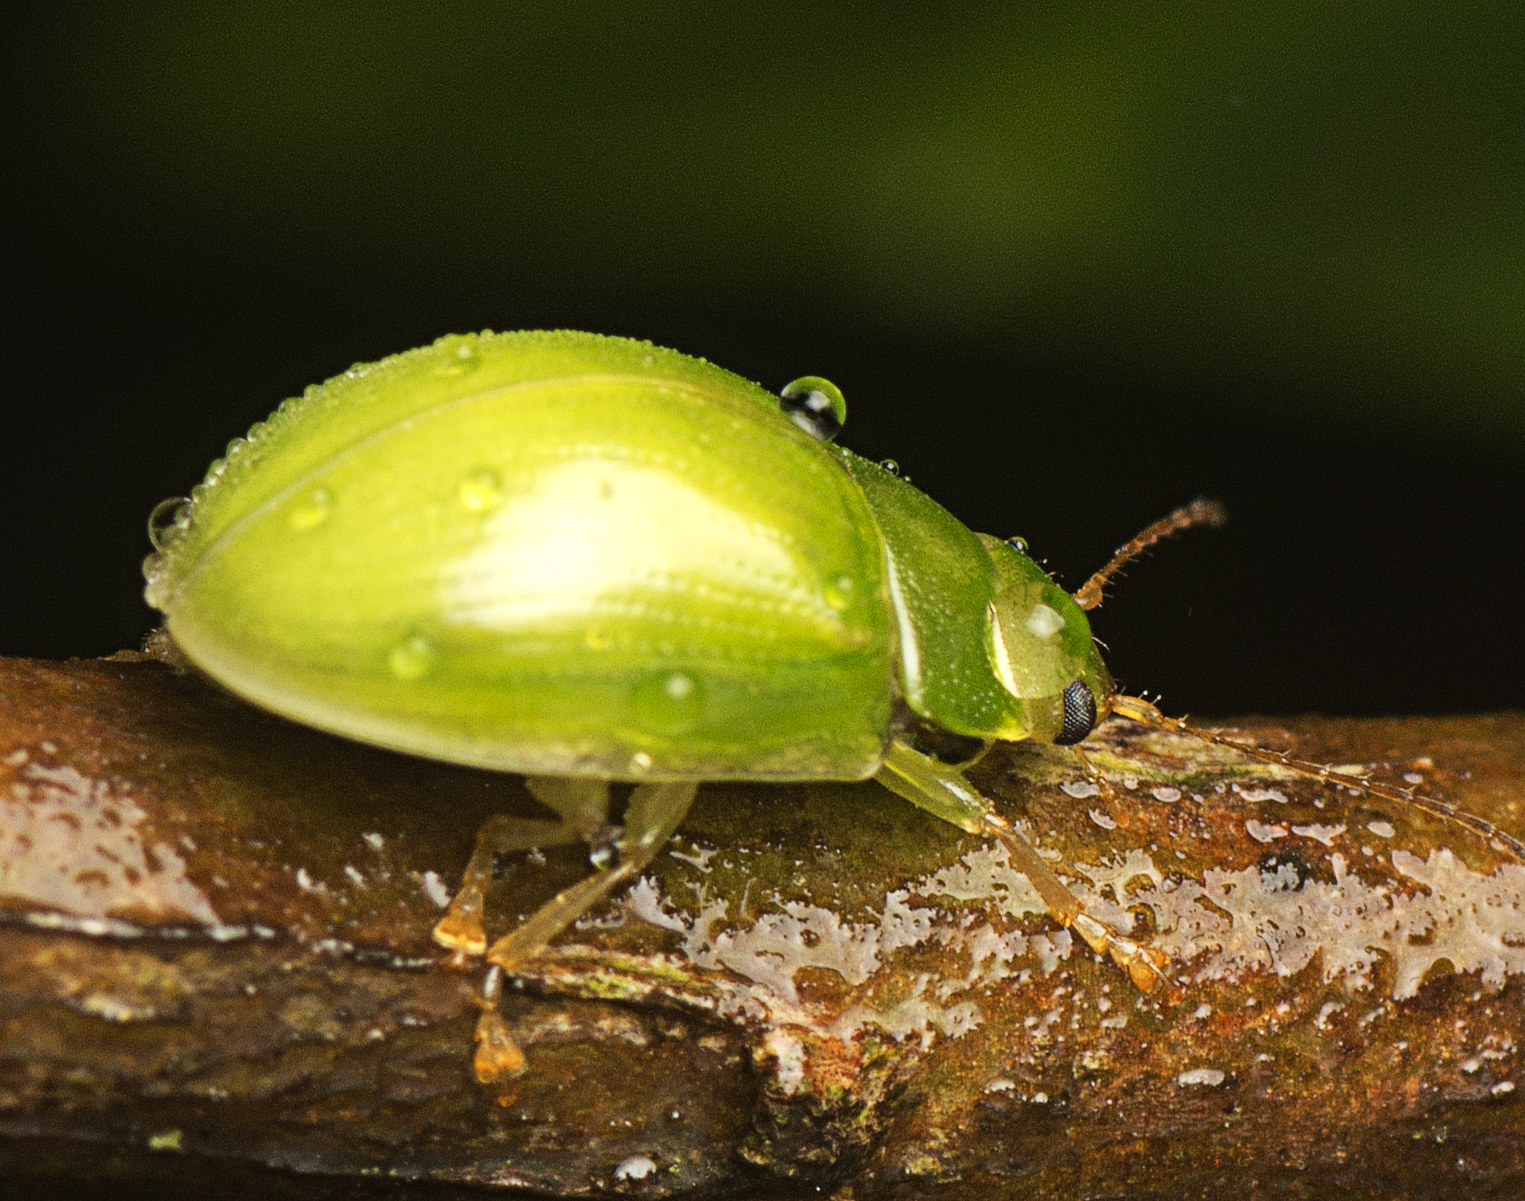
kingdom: Animalia
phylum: Arthropoda
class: Insecta
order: Coleoptera
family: Chrysomelidae
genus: Paropsides
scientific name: Paropsides
